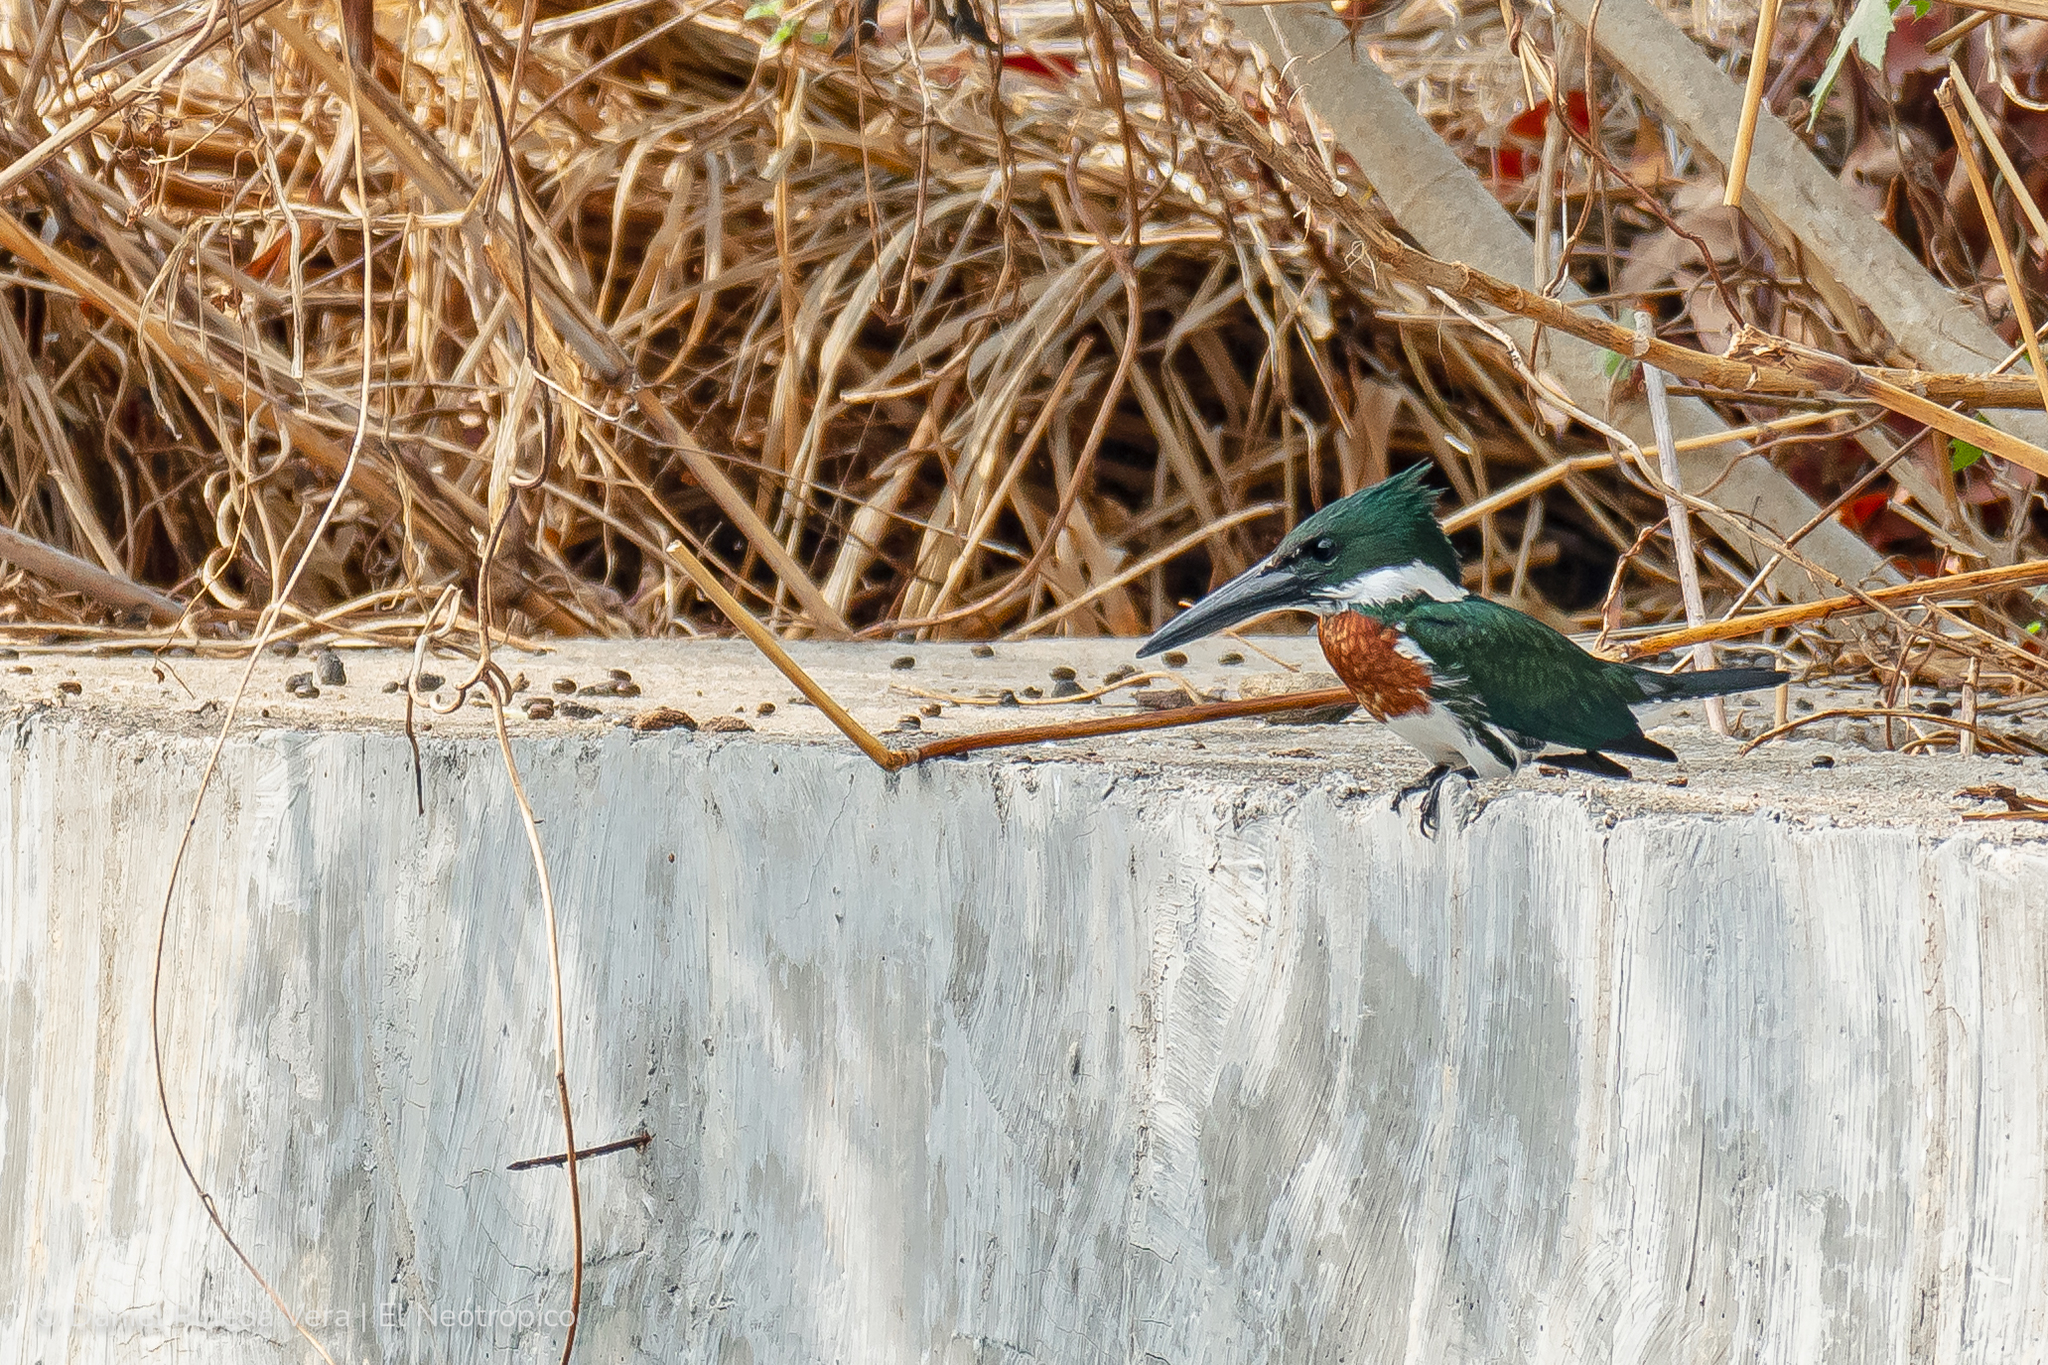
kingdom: Animalia
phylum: Chordata
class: Aves
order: Coraciiformes
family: Alcedinidae
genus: Chloroceryle
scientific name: Chloroceryle amazona
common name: Amazon kingfisher
